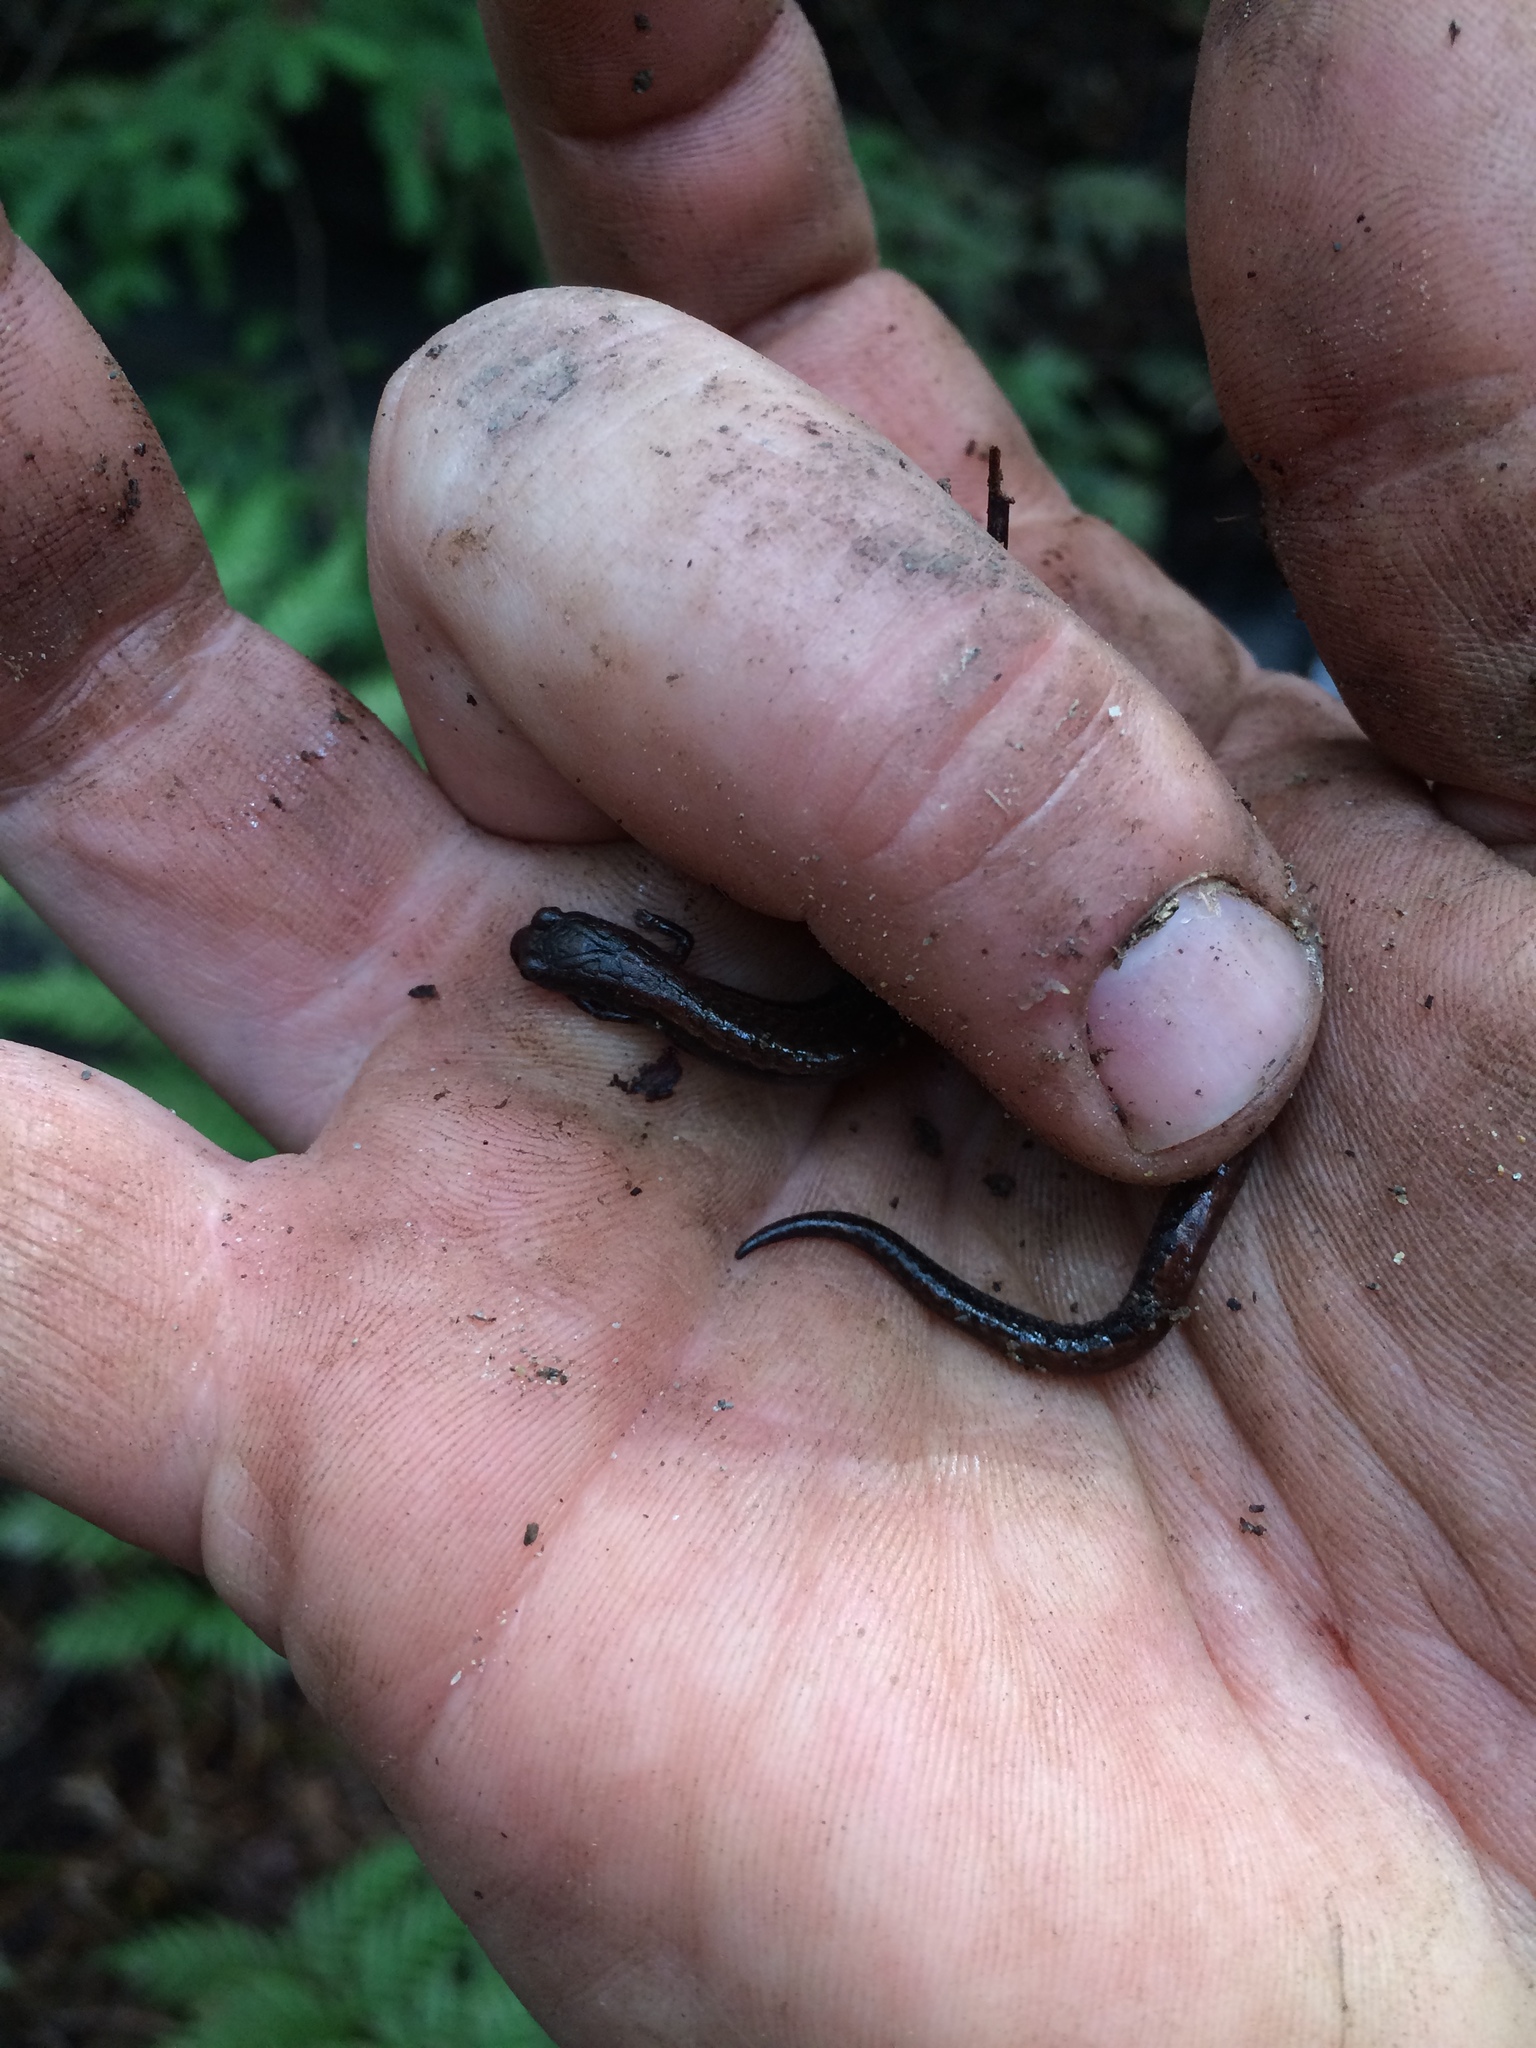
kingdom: Animalia
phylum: Chordata
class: Amphibia
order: Caudata
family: Plethodontidae
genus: Batrachoseps
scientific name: Batrachoseps attenuatus
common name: California slender salamander
